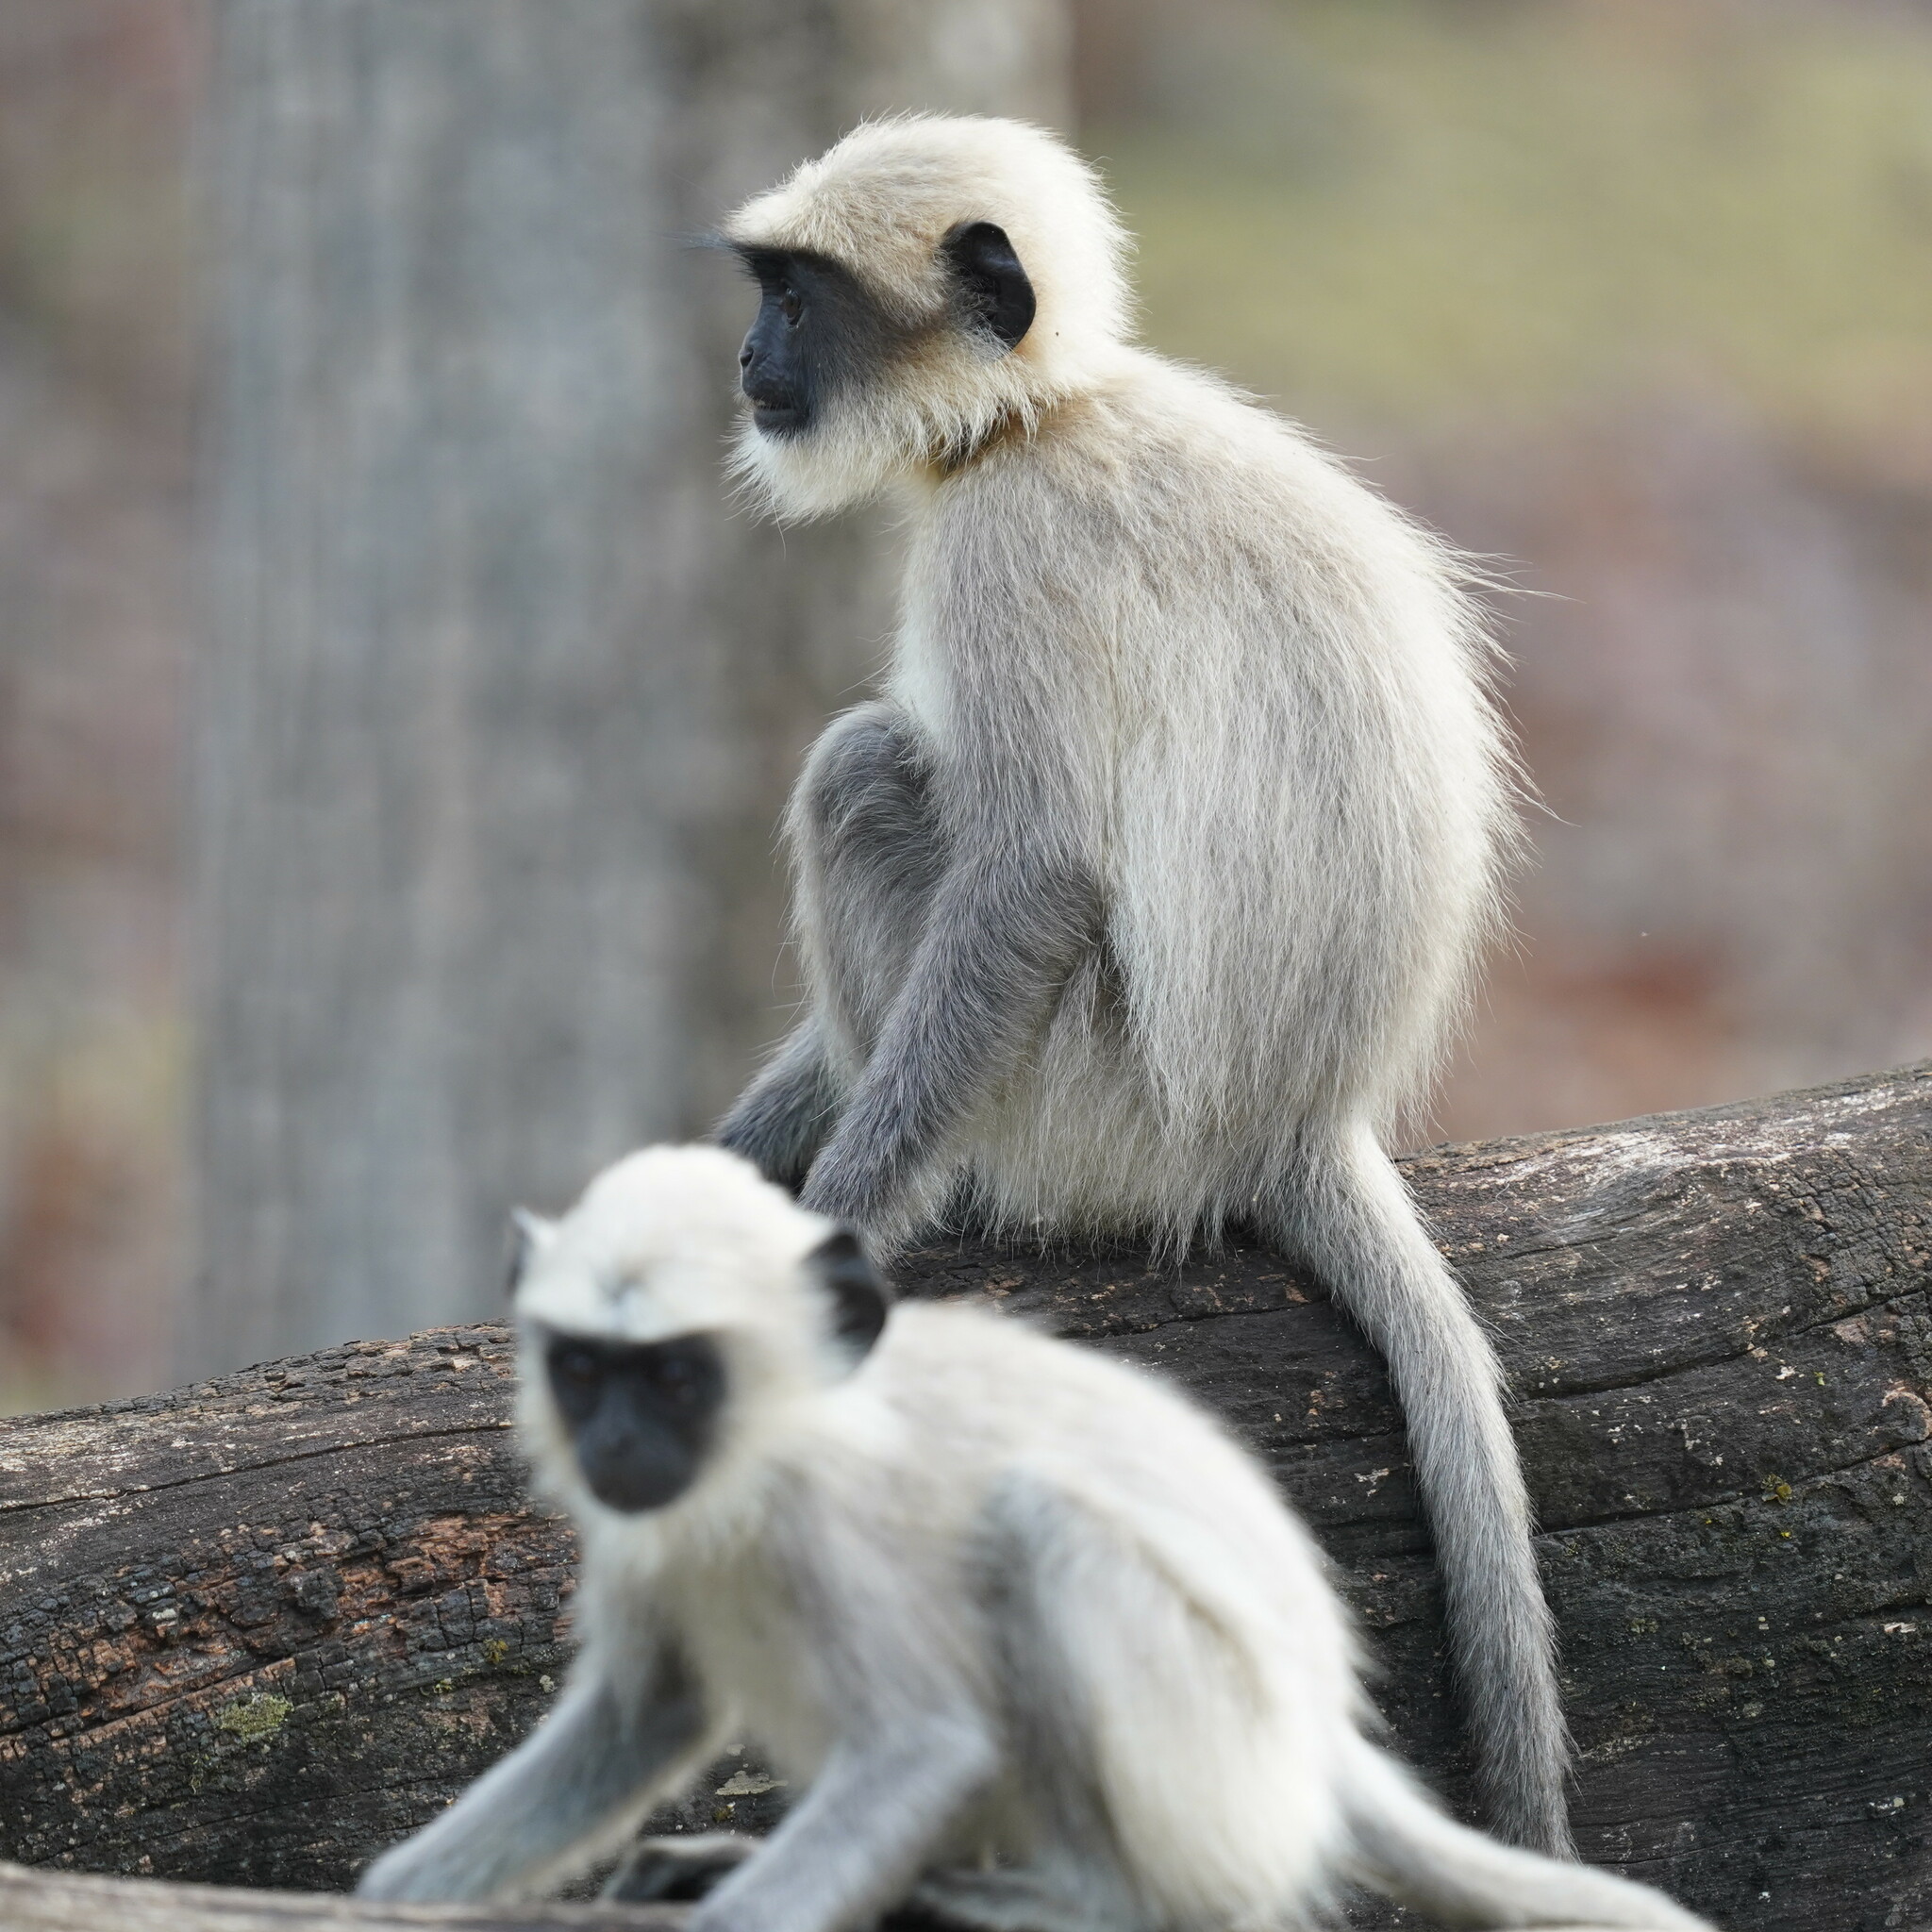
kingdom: Animalia
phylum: Chordata
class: Mammalia
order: Primates
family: Cercopithecidae
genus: Semnopithecus
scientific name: Semnopithecus hypoleucos
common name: Black-footed gray langur
